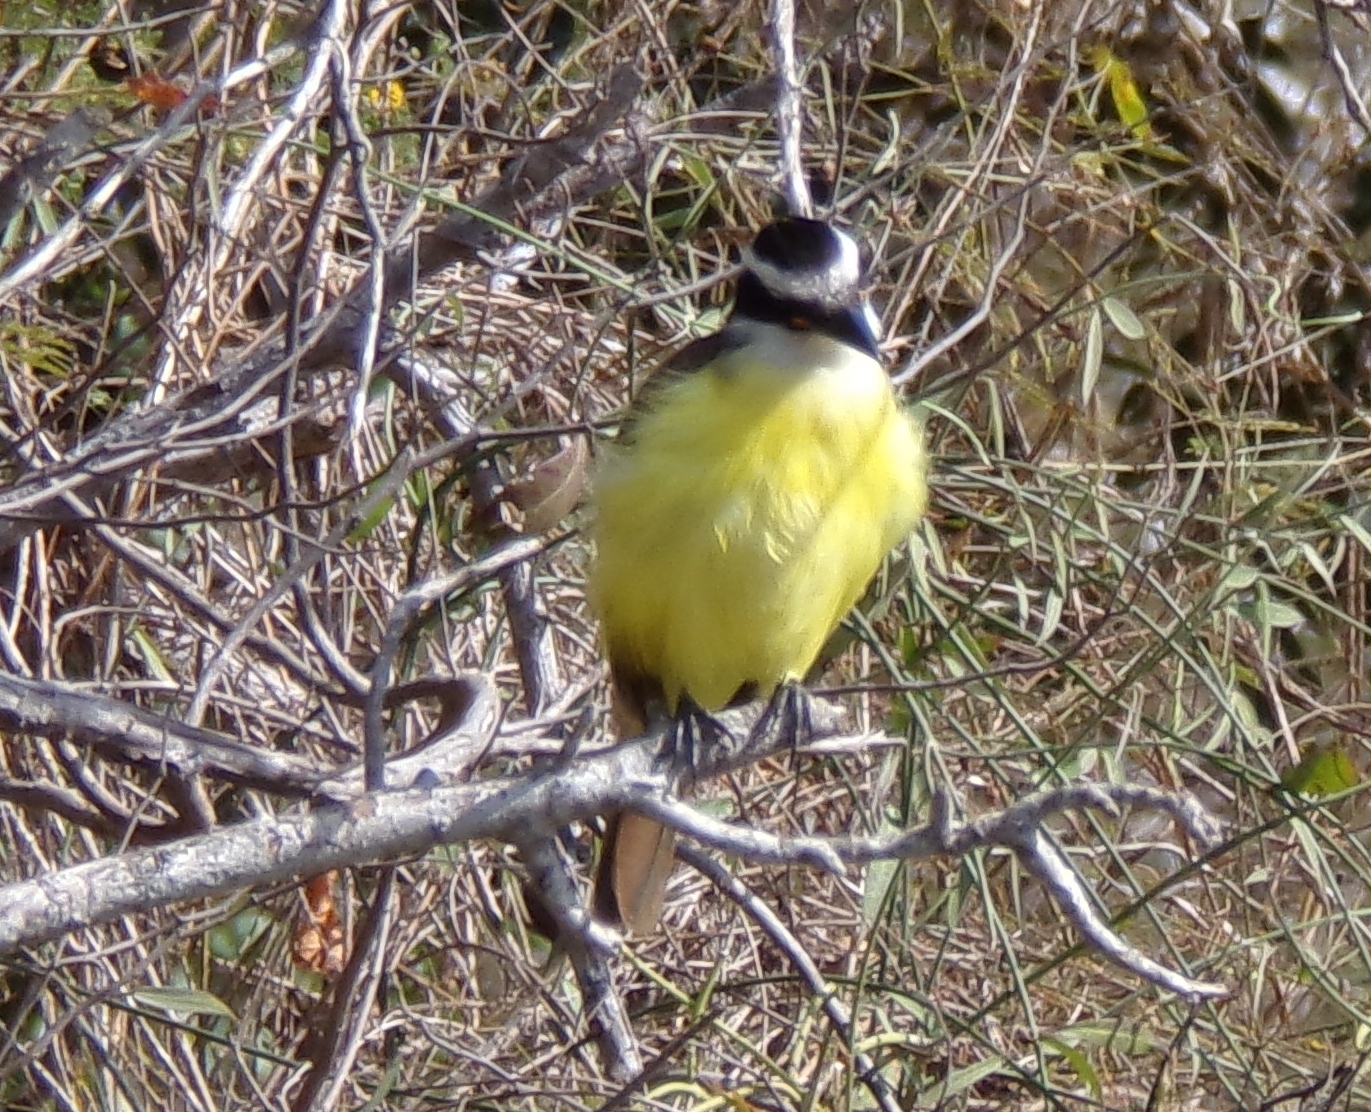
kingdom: Animalia
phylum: Chordata
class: Aves
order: Passeriformes
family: Tyrannidae
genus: Pitangus
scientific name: Pitangus sulphuratus
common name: Great kiskadee
